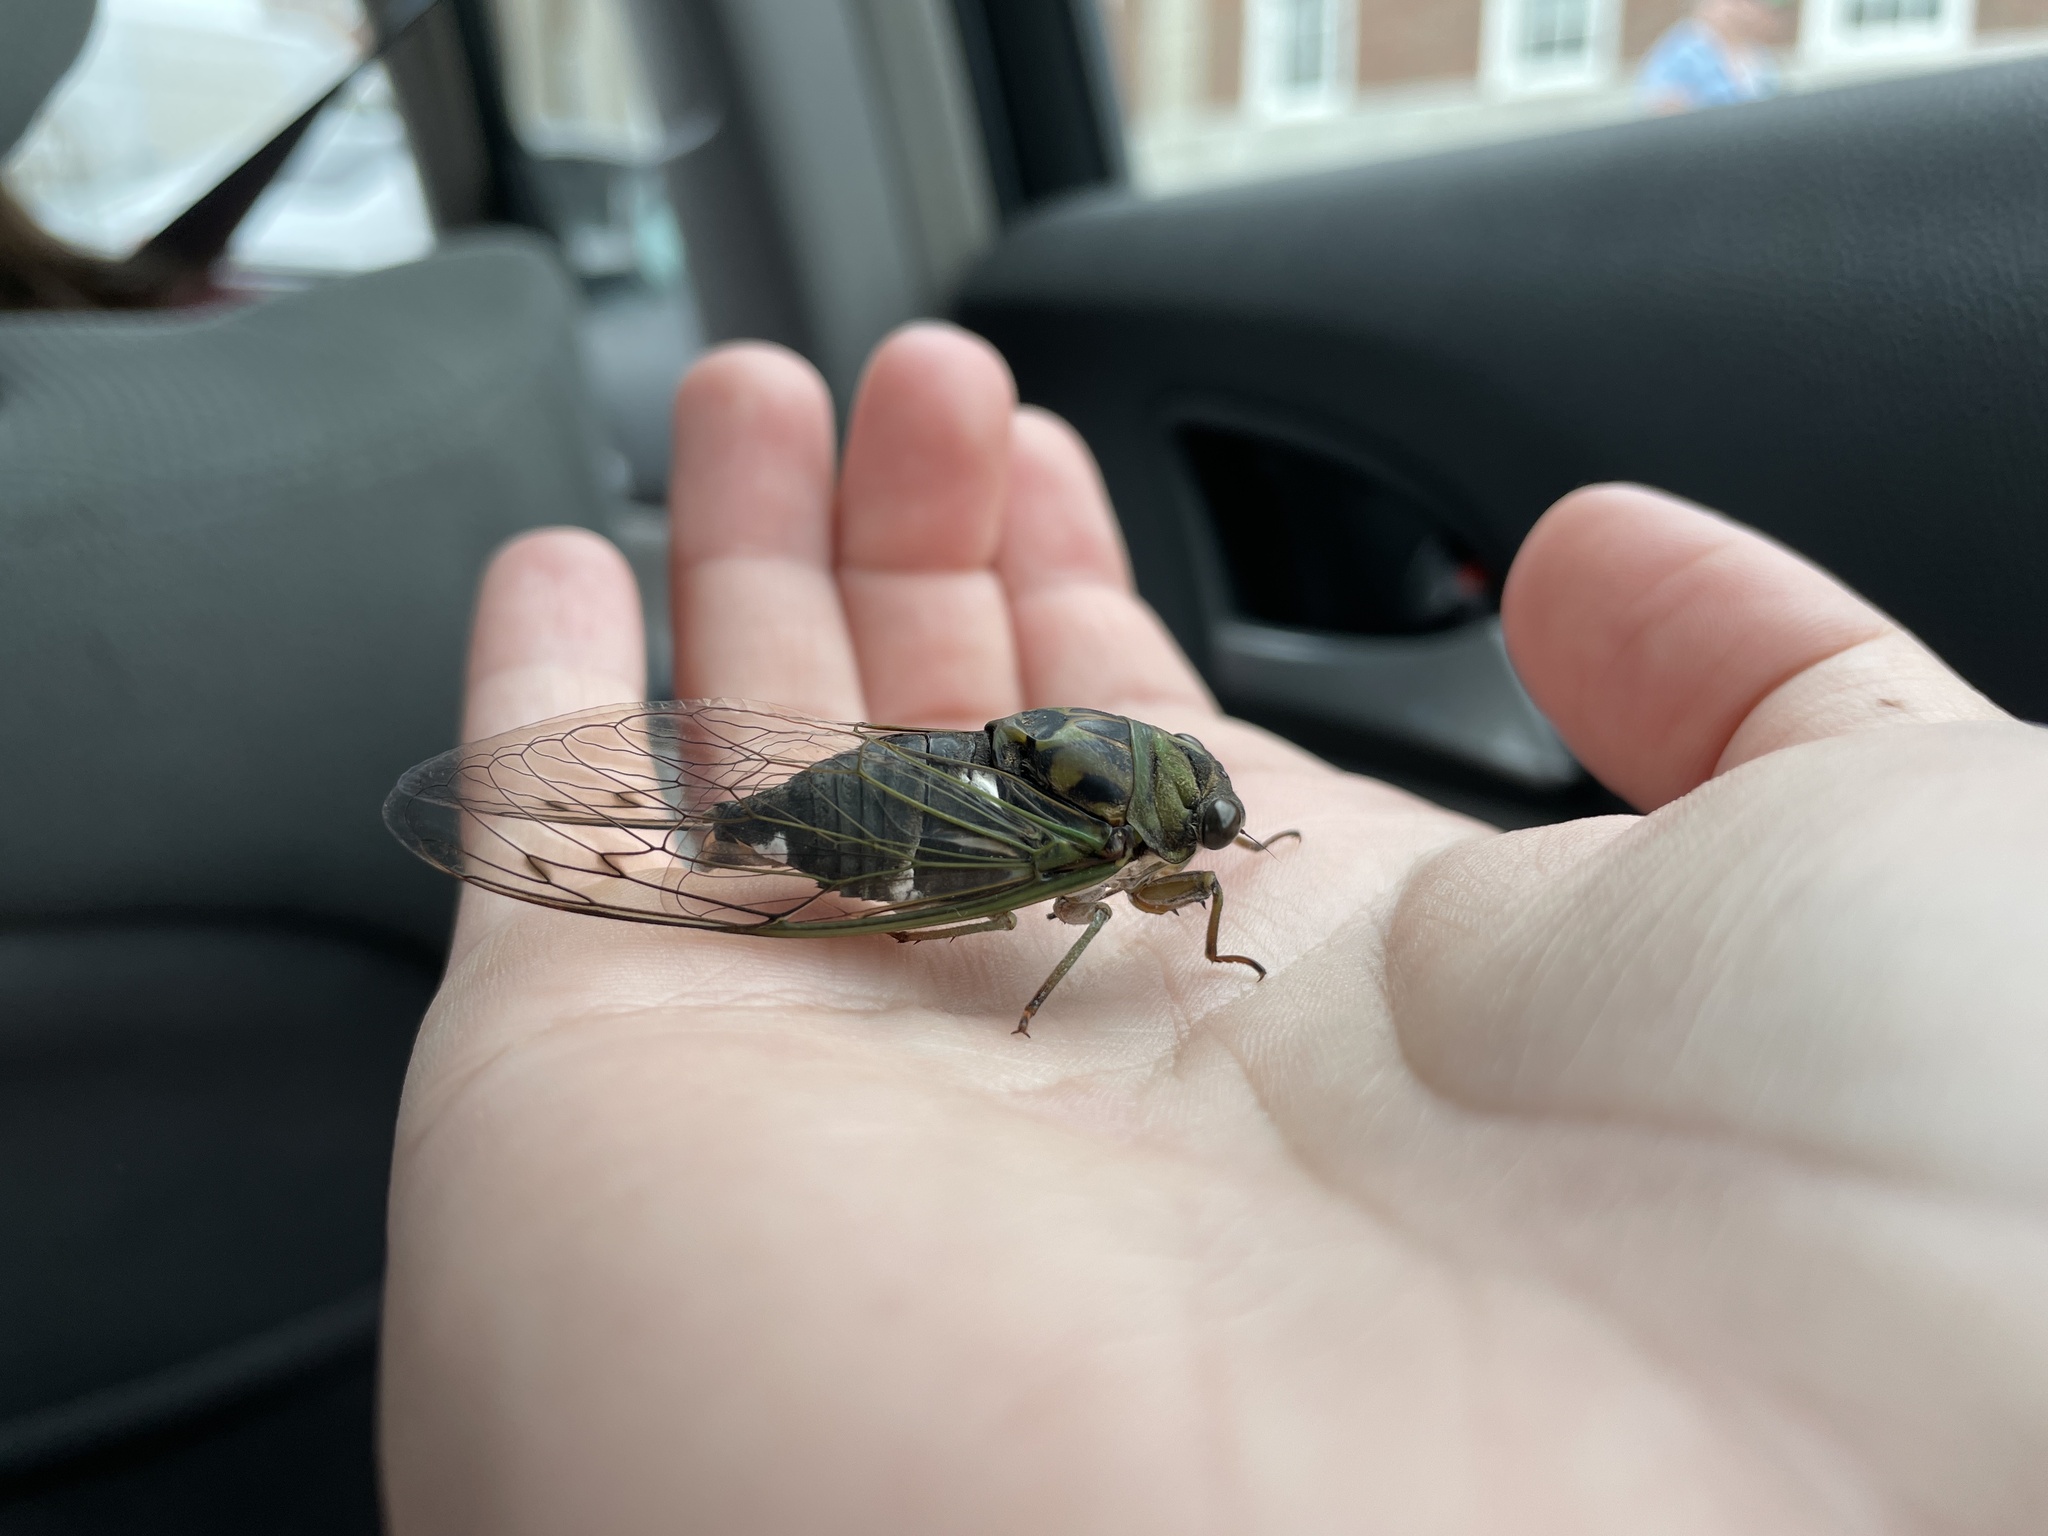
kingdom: Animalia
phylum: Arthropoda
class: Insecta
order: Hemiptera
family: Cicadidae
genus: Neotibicen
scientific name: Neotibicen pruinosus
